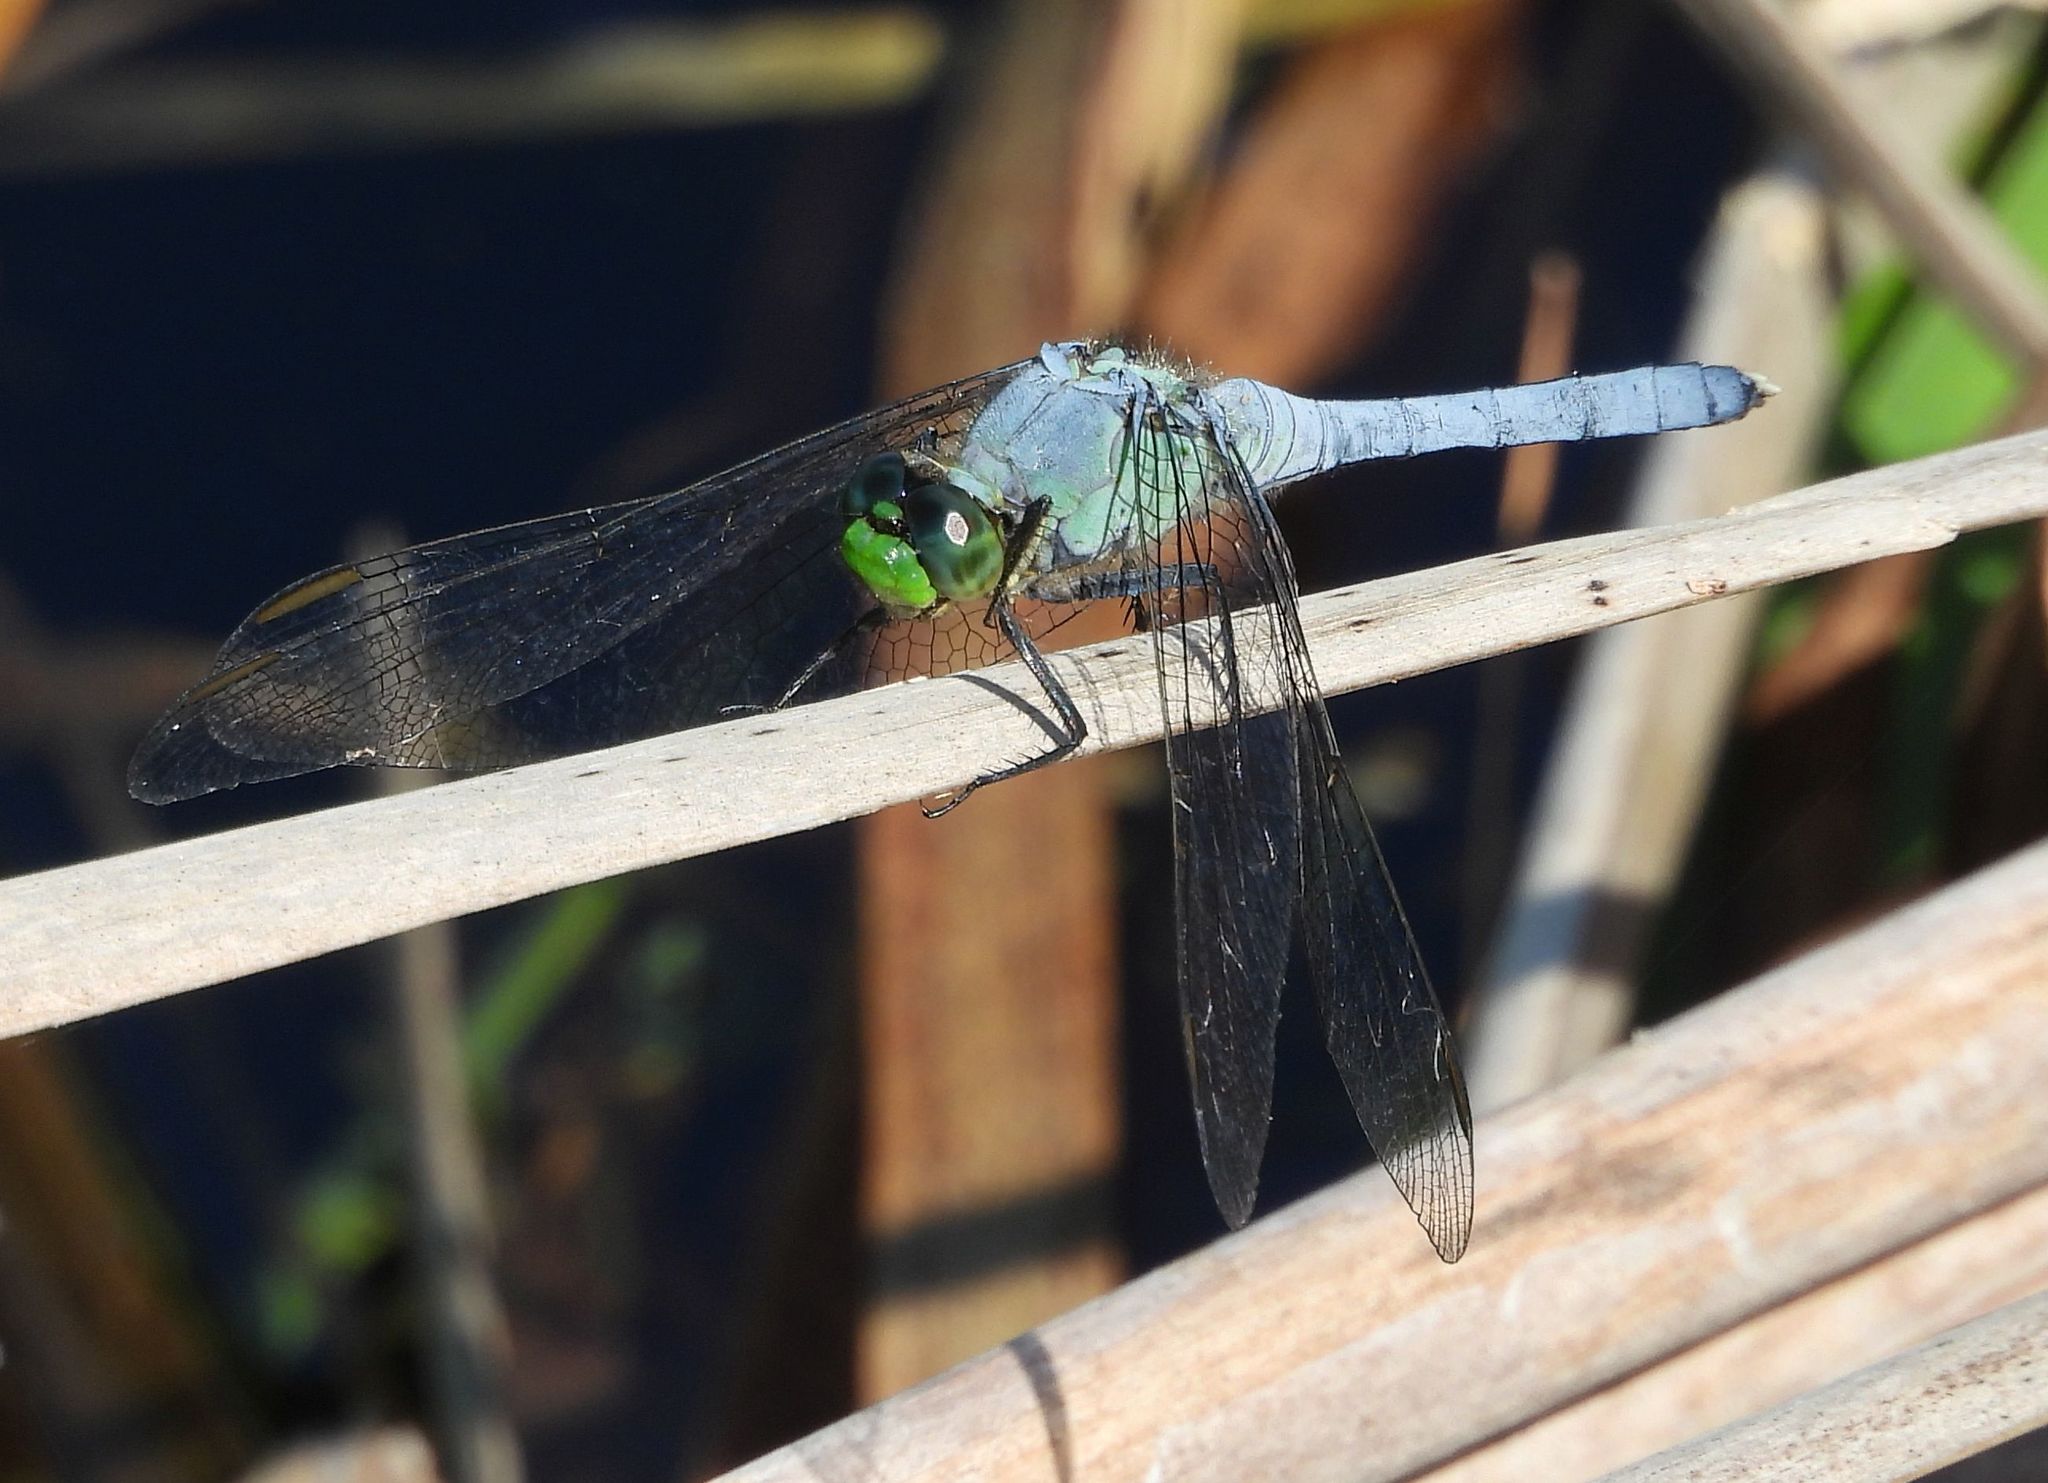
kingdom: Animalia
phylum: Arthropoda
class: Insecta
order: Odonata
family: Libellulidae
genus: Erythemis
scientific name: Erythemis simplicicollis
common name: Eastern pondhawk
